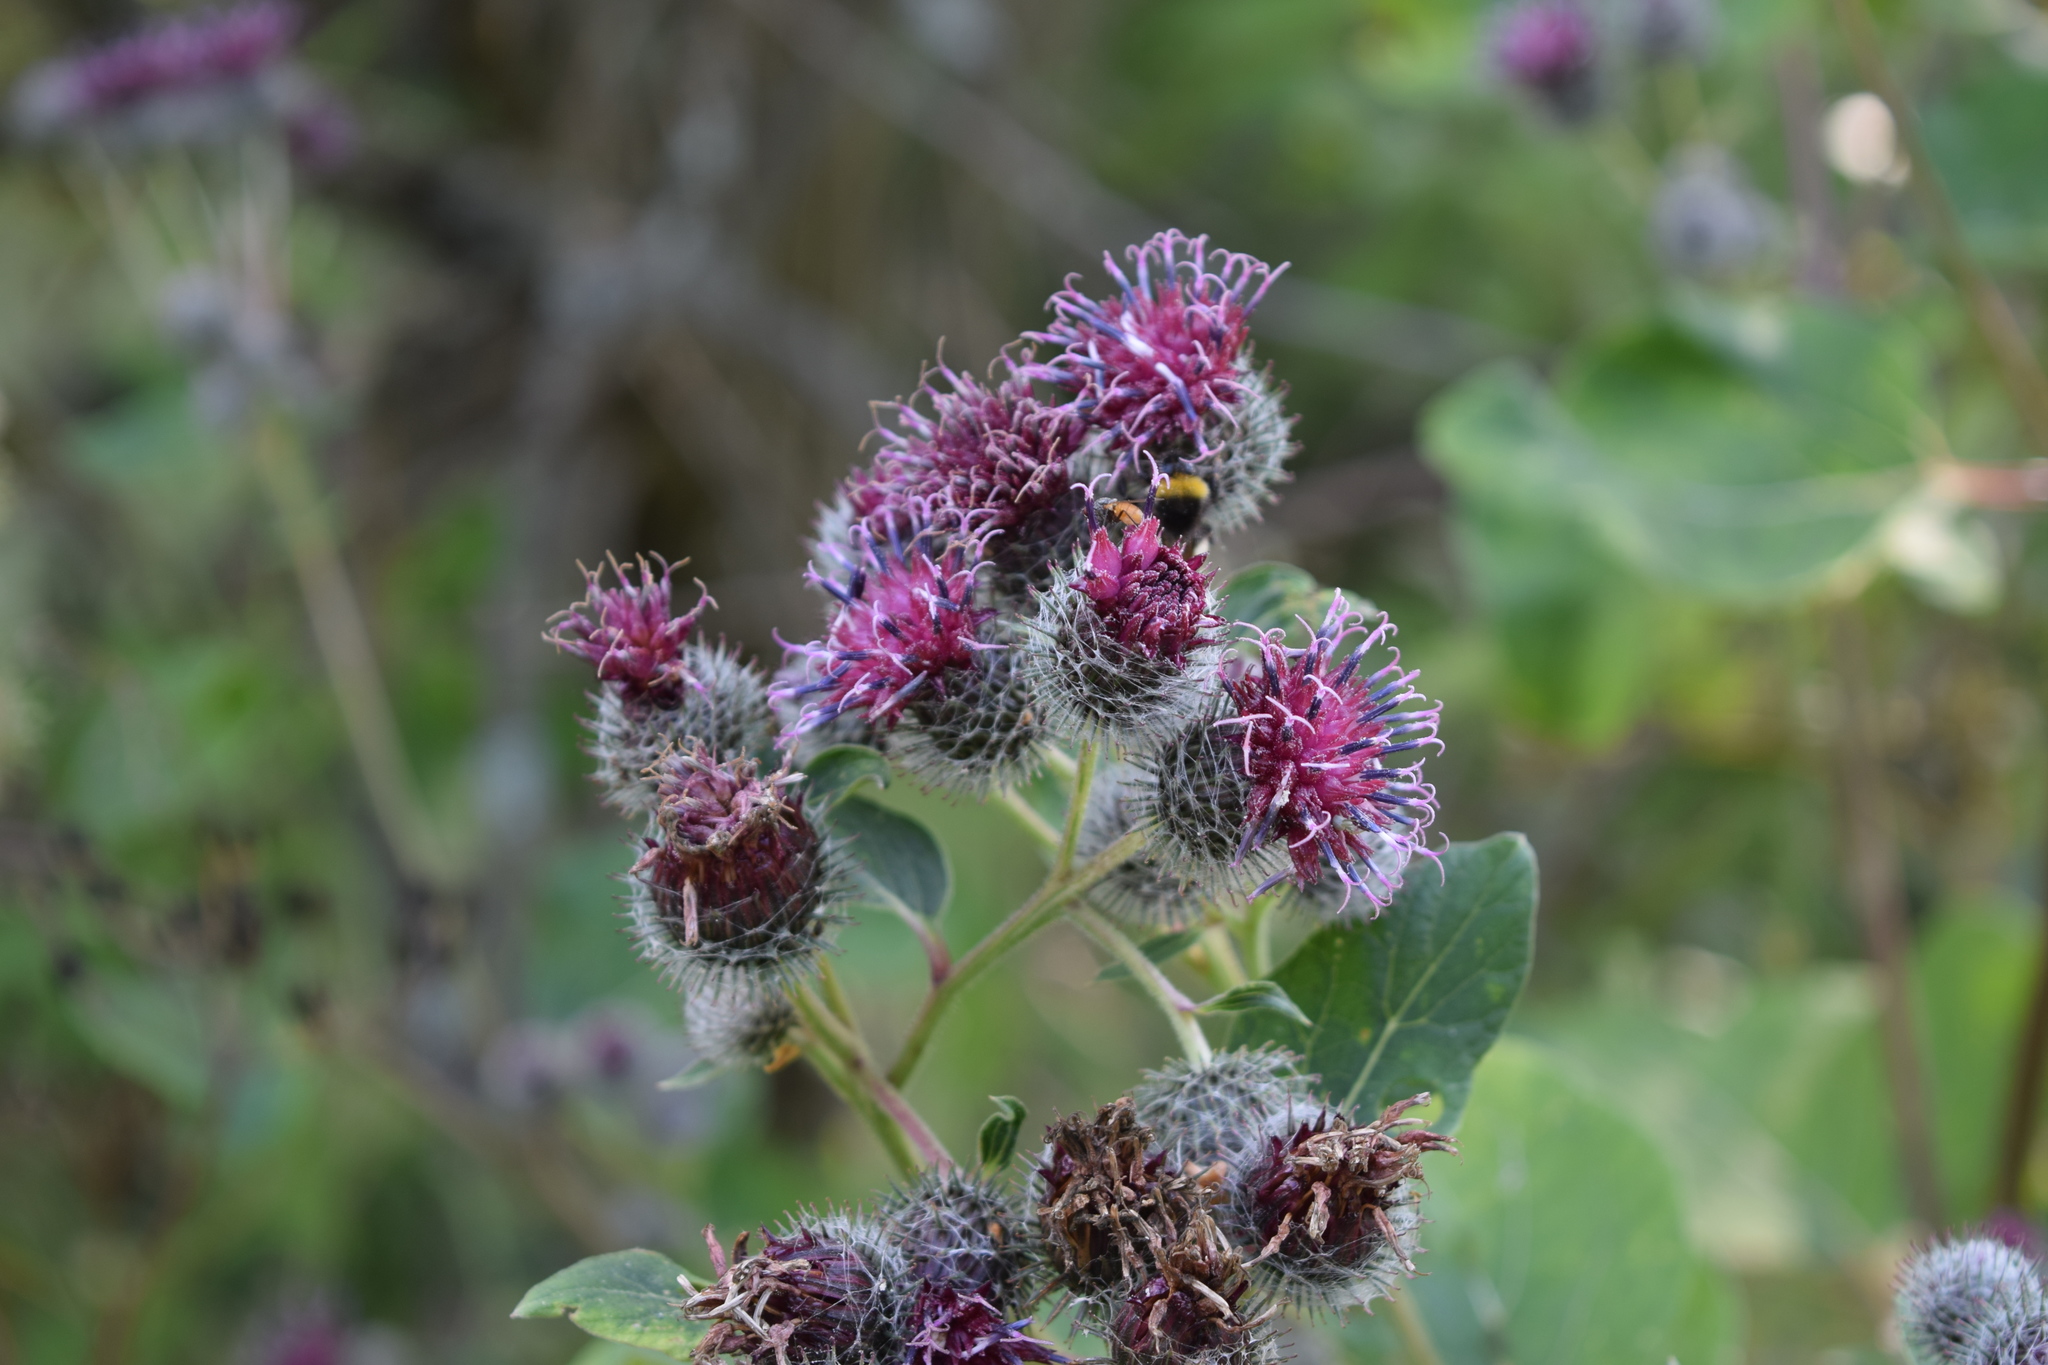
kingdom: Plantae
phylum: Tracheophyta
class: Magnoliopsida
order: Asterales
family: Asteraceae
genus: Arctium
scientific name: Arctium tomentosum
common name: Woolly burdock
